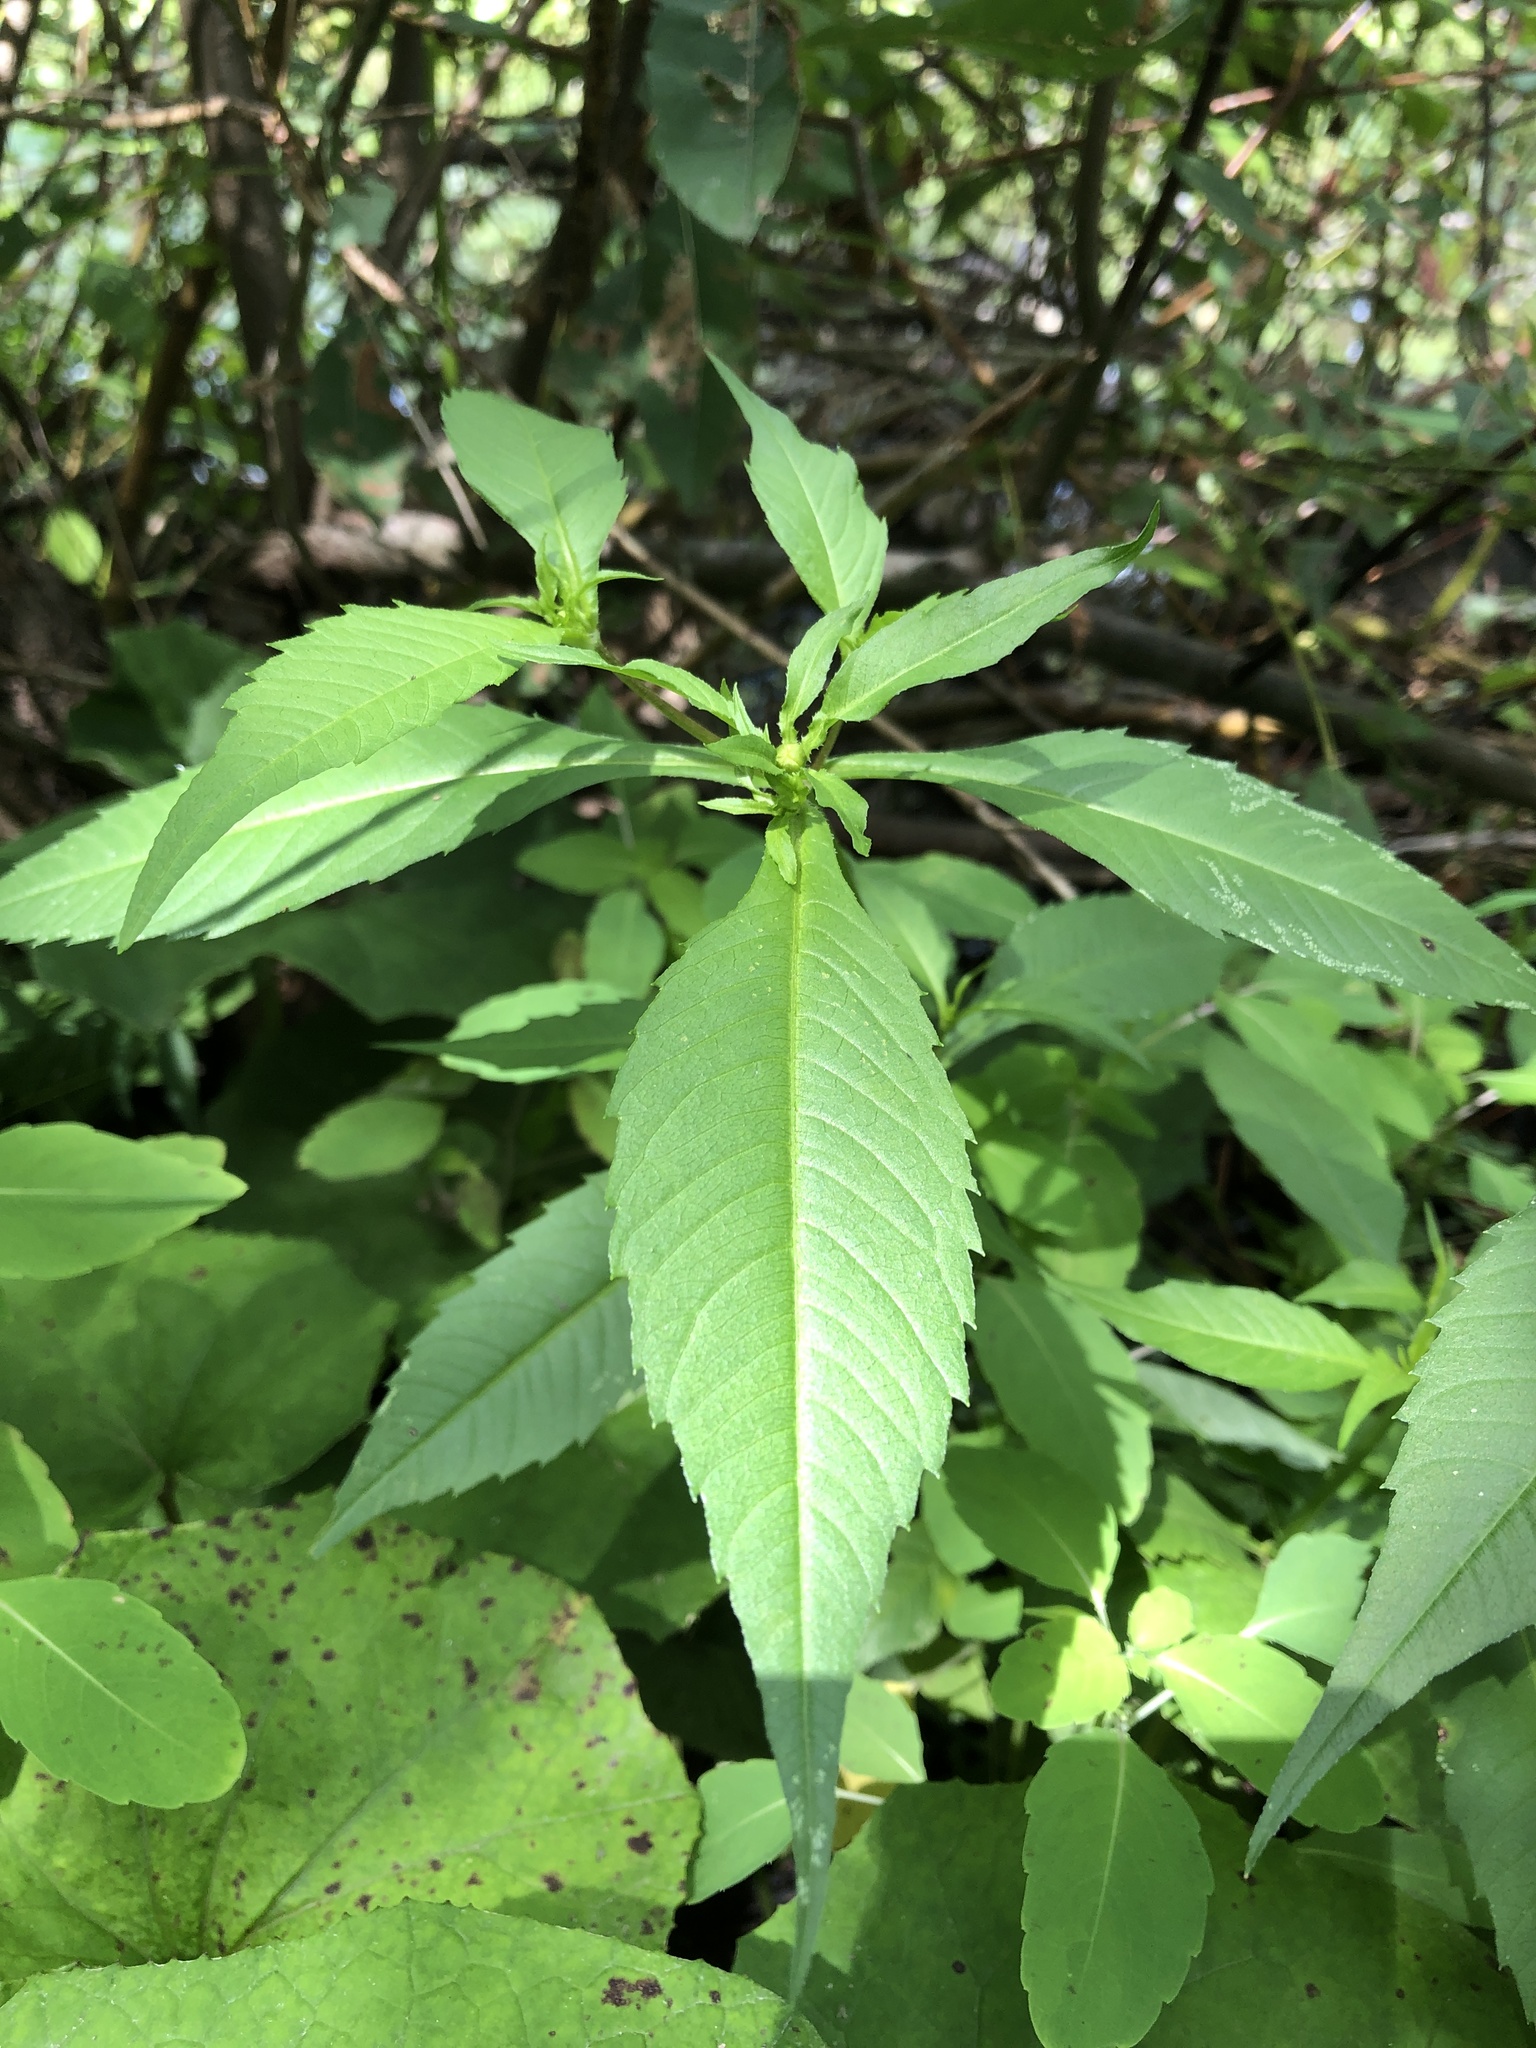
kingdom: Plantae
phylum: Tracheophyta
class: Magnoliopsida
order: Asterales
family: Asteraceae
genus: Bidens
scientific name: Bidens connata
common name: London bur-marigold
